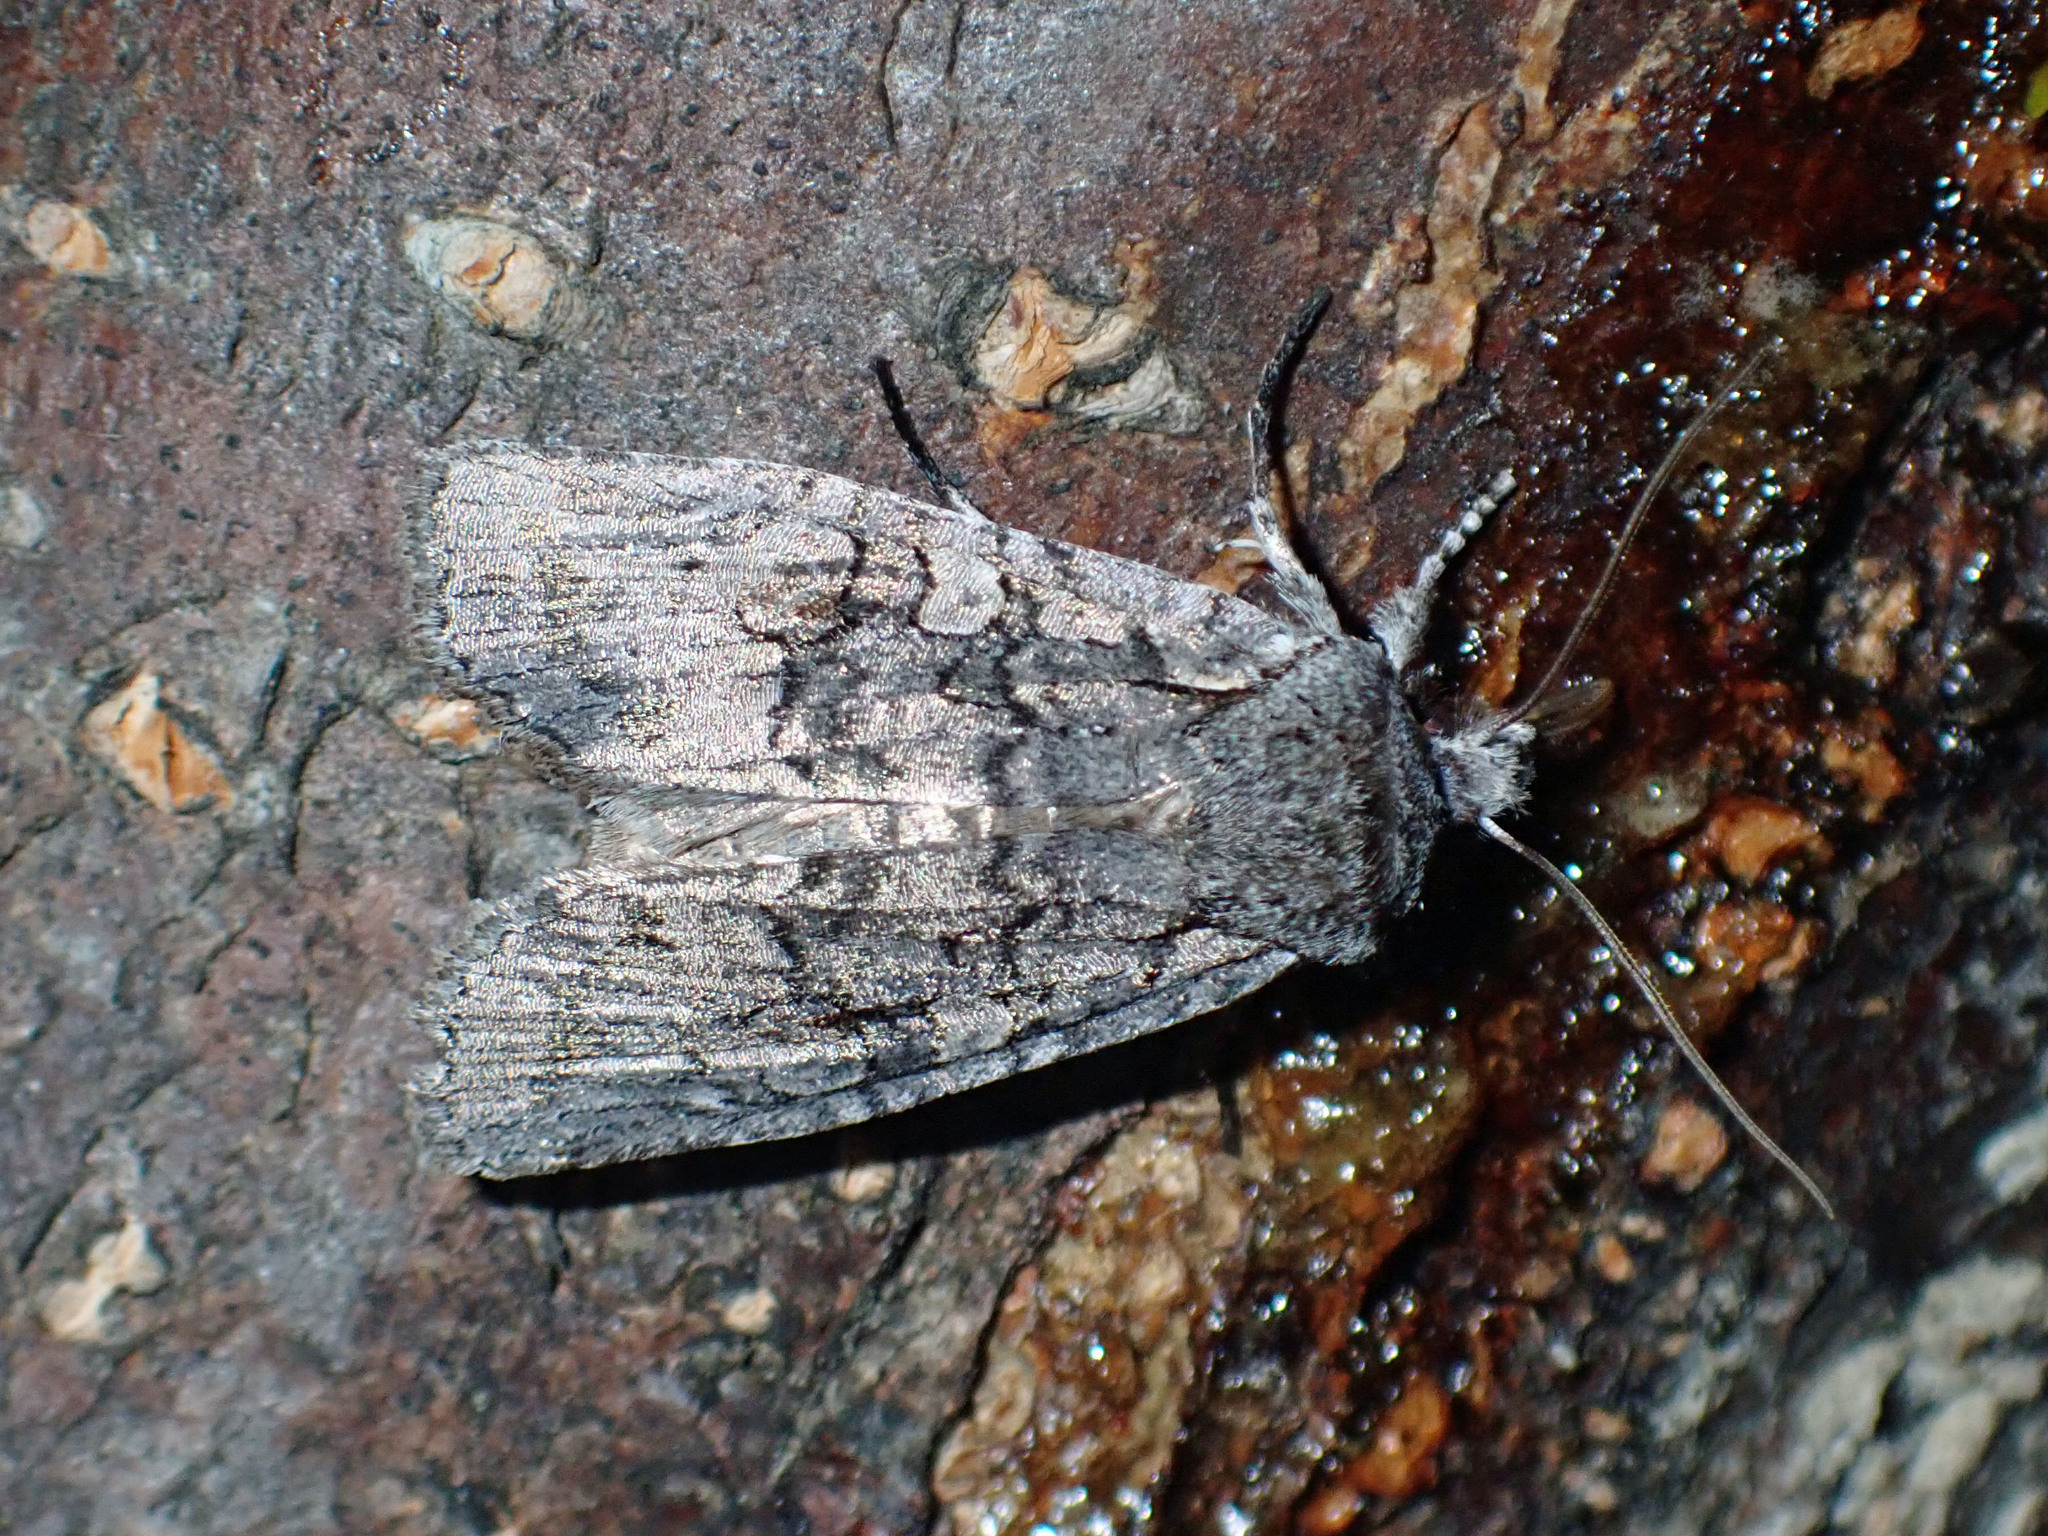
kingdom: Animalia
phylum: Arthropoda
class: Insecta
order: Lepidoptera
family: Noctuidae
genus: Lithophane
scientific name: Lithophane baileyi
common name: Bailey's pinion moth
